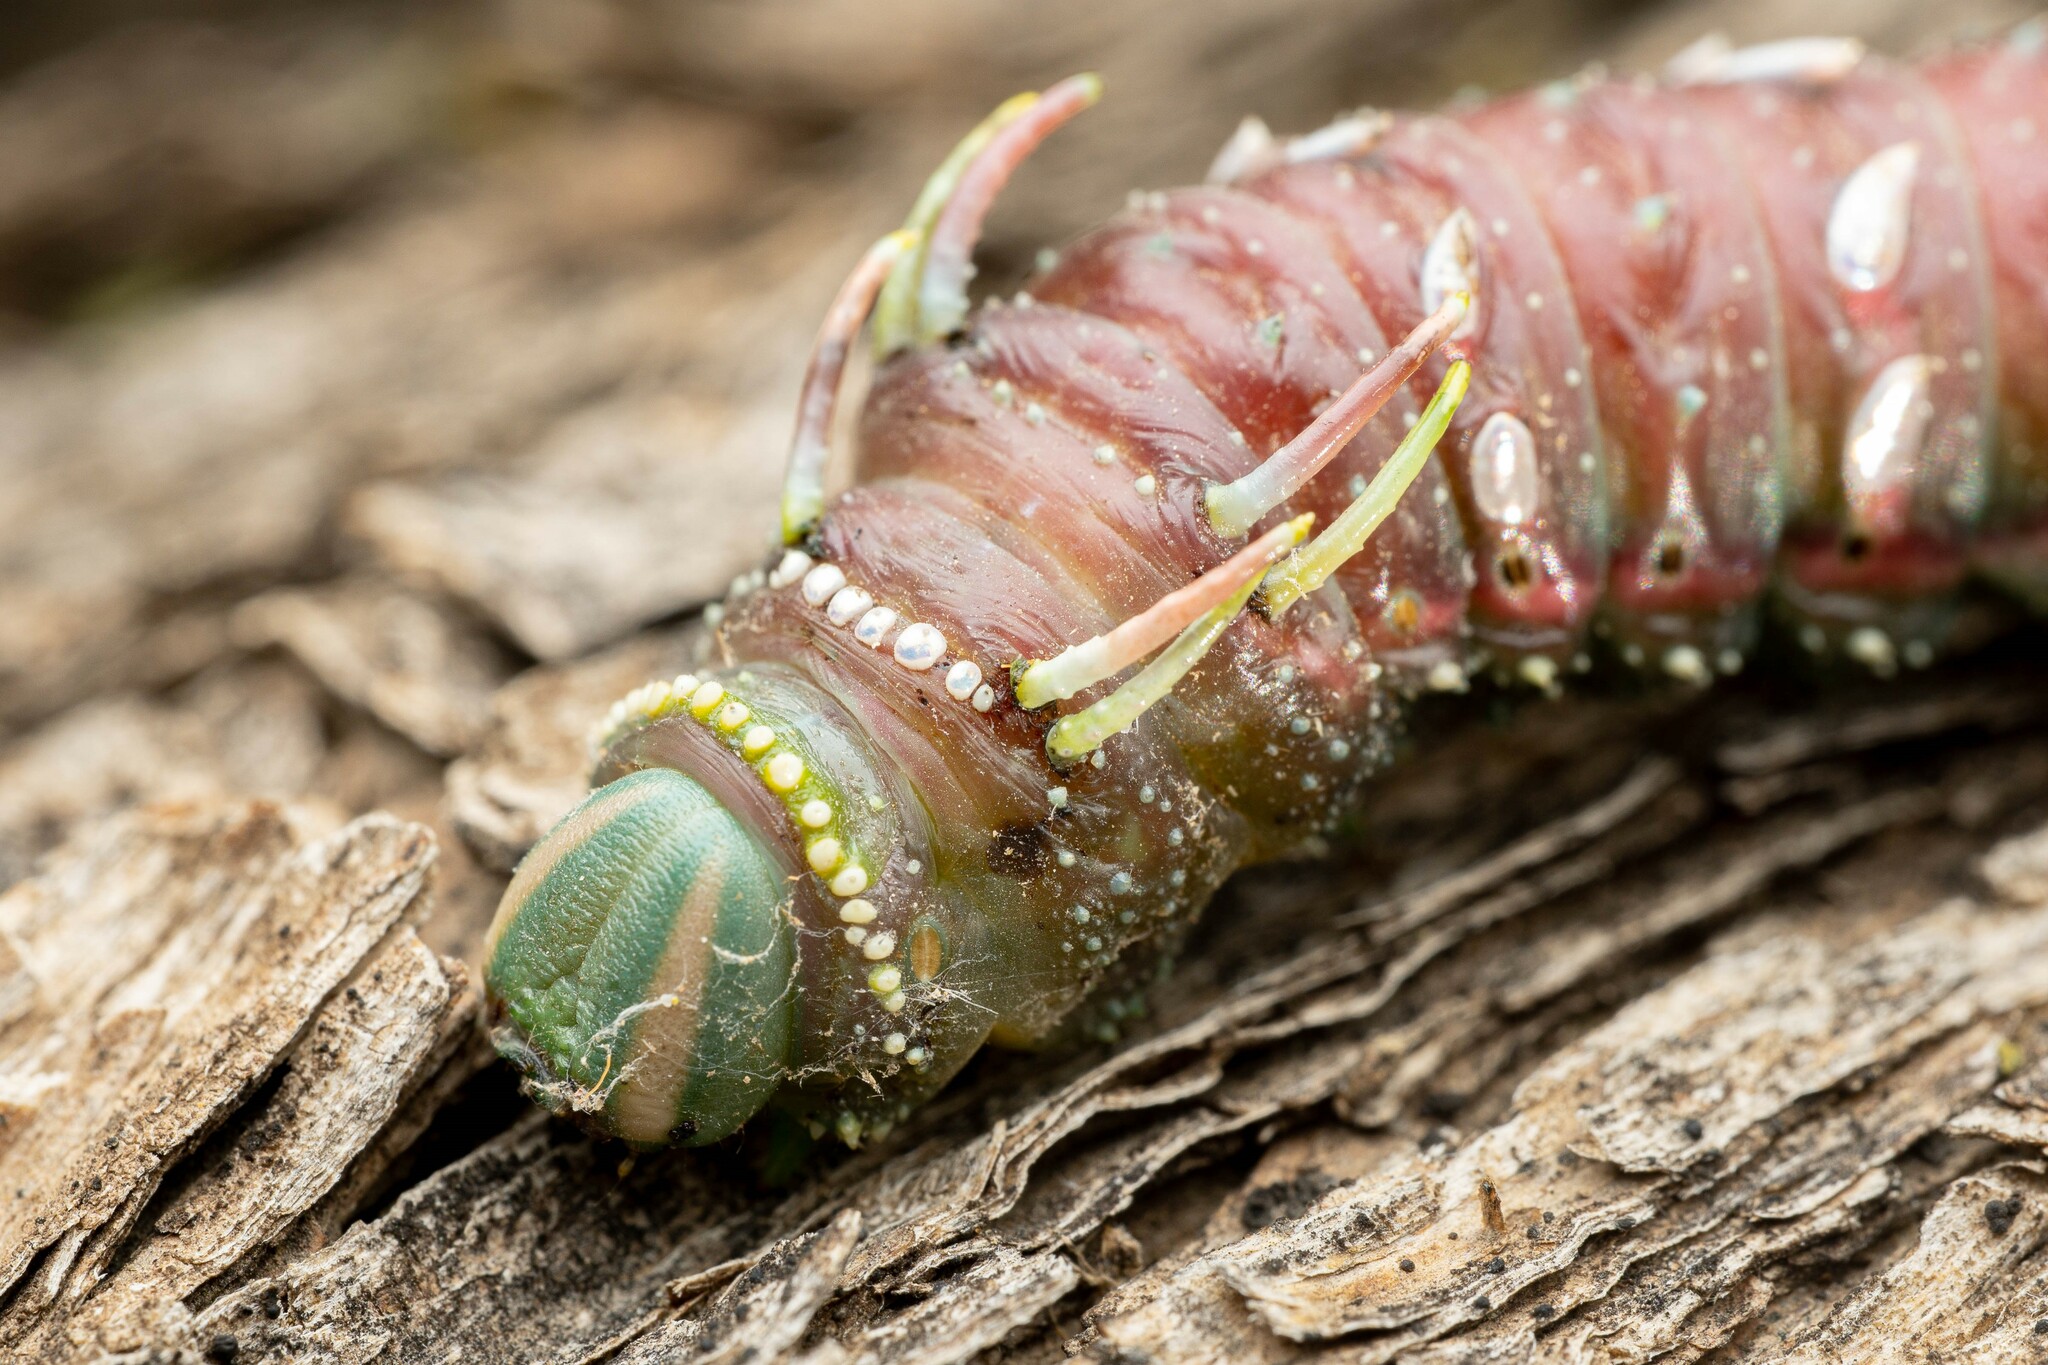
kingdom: Animalia
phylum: Arthropoda
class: Insecta
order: Lepidoptera
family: Saturniidae
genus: Syssphinx
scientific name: Syssphinx hubbardi
